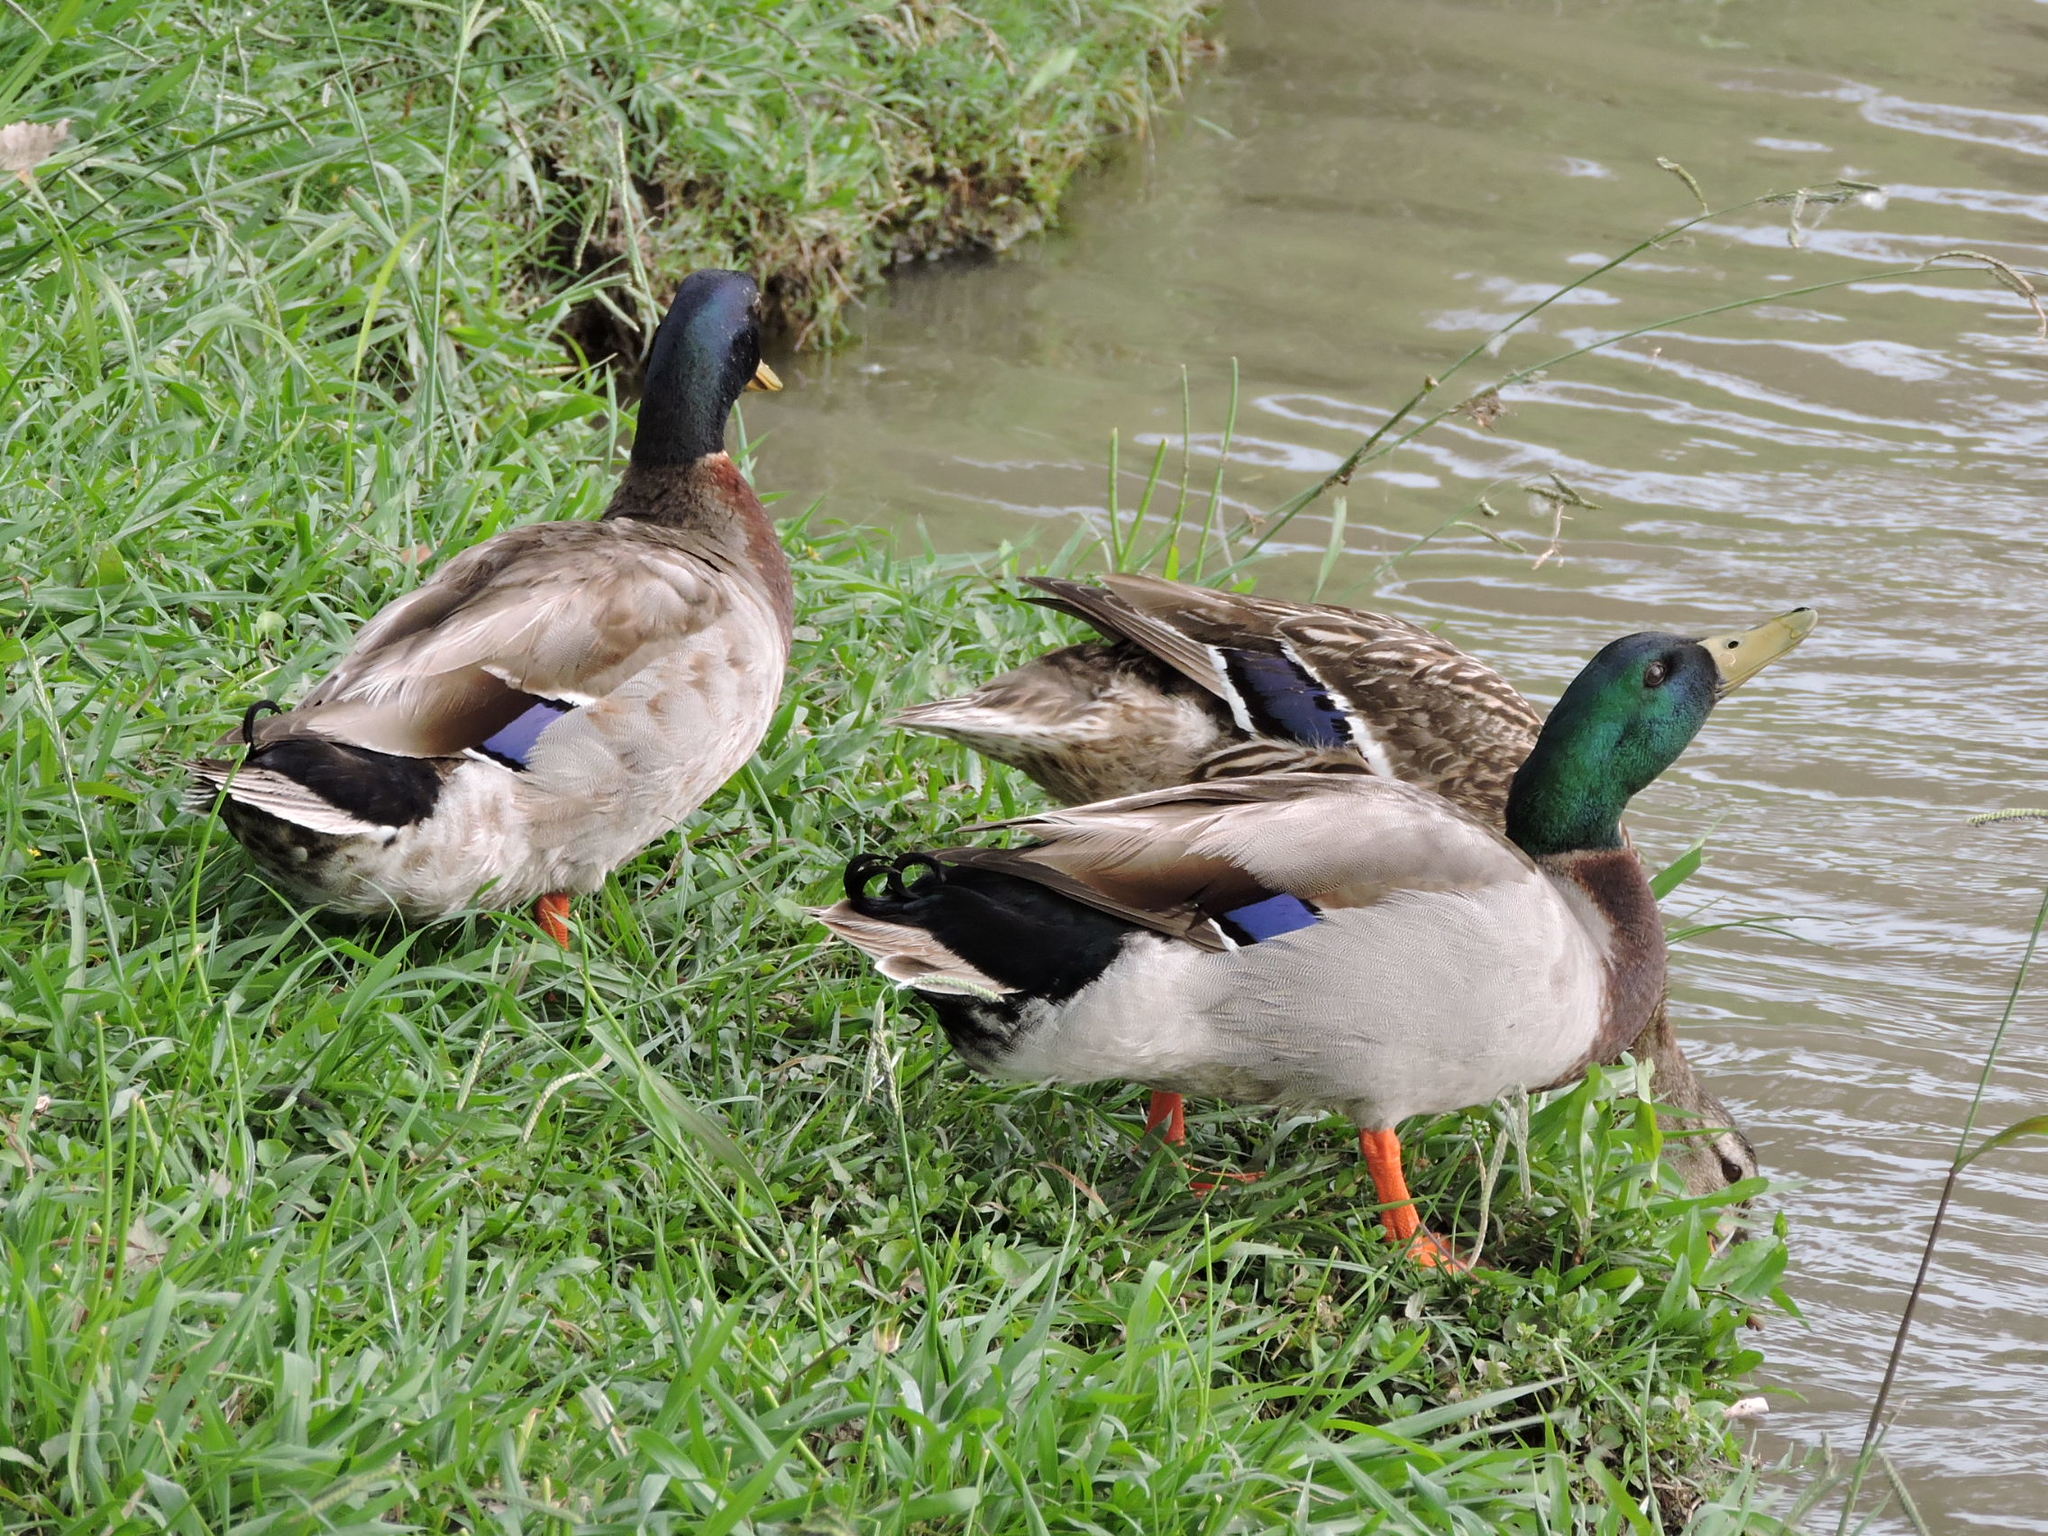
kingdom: Animalia
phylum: Chordata
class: Aves
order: Anseriformes
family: Anatidae
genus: Anas
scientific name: Anas platyrhynchos
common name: Mallard
